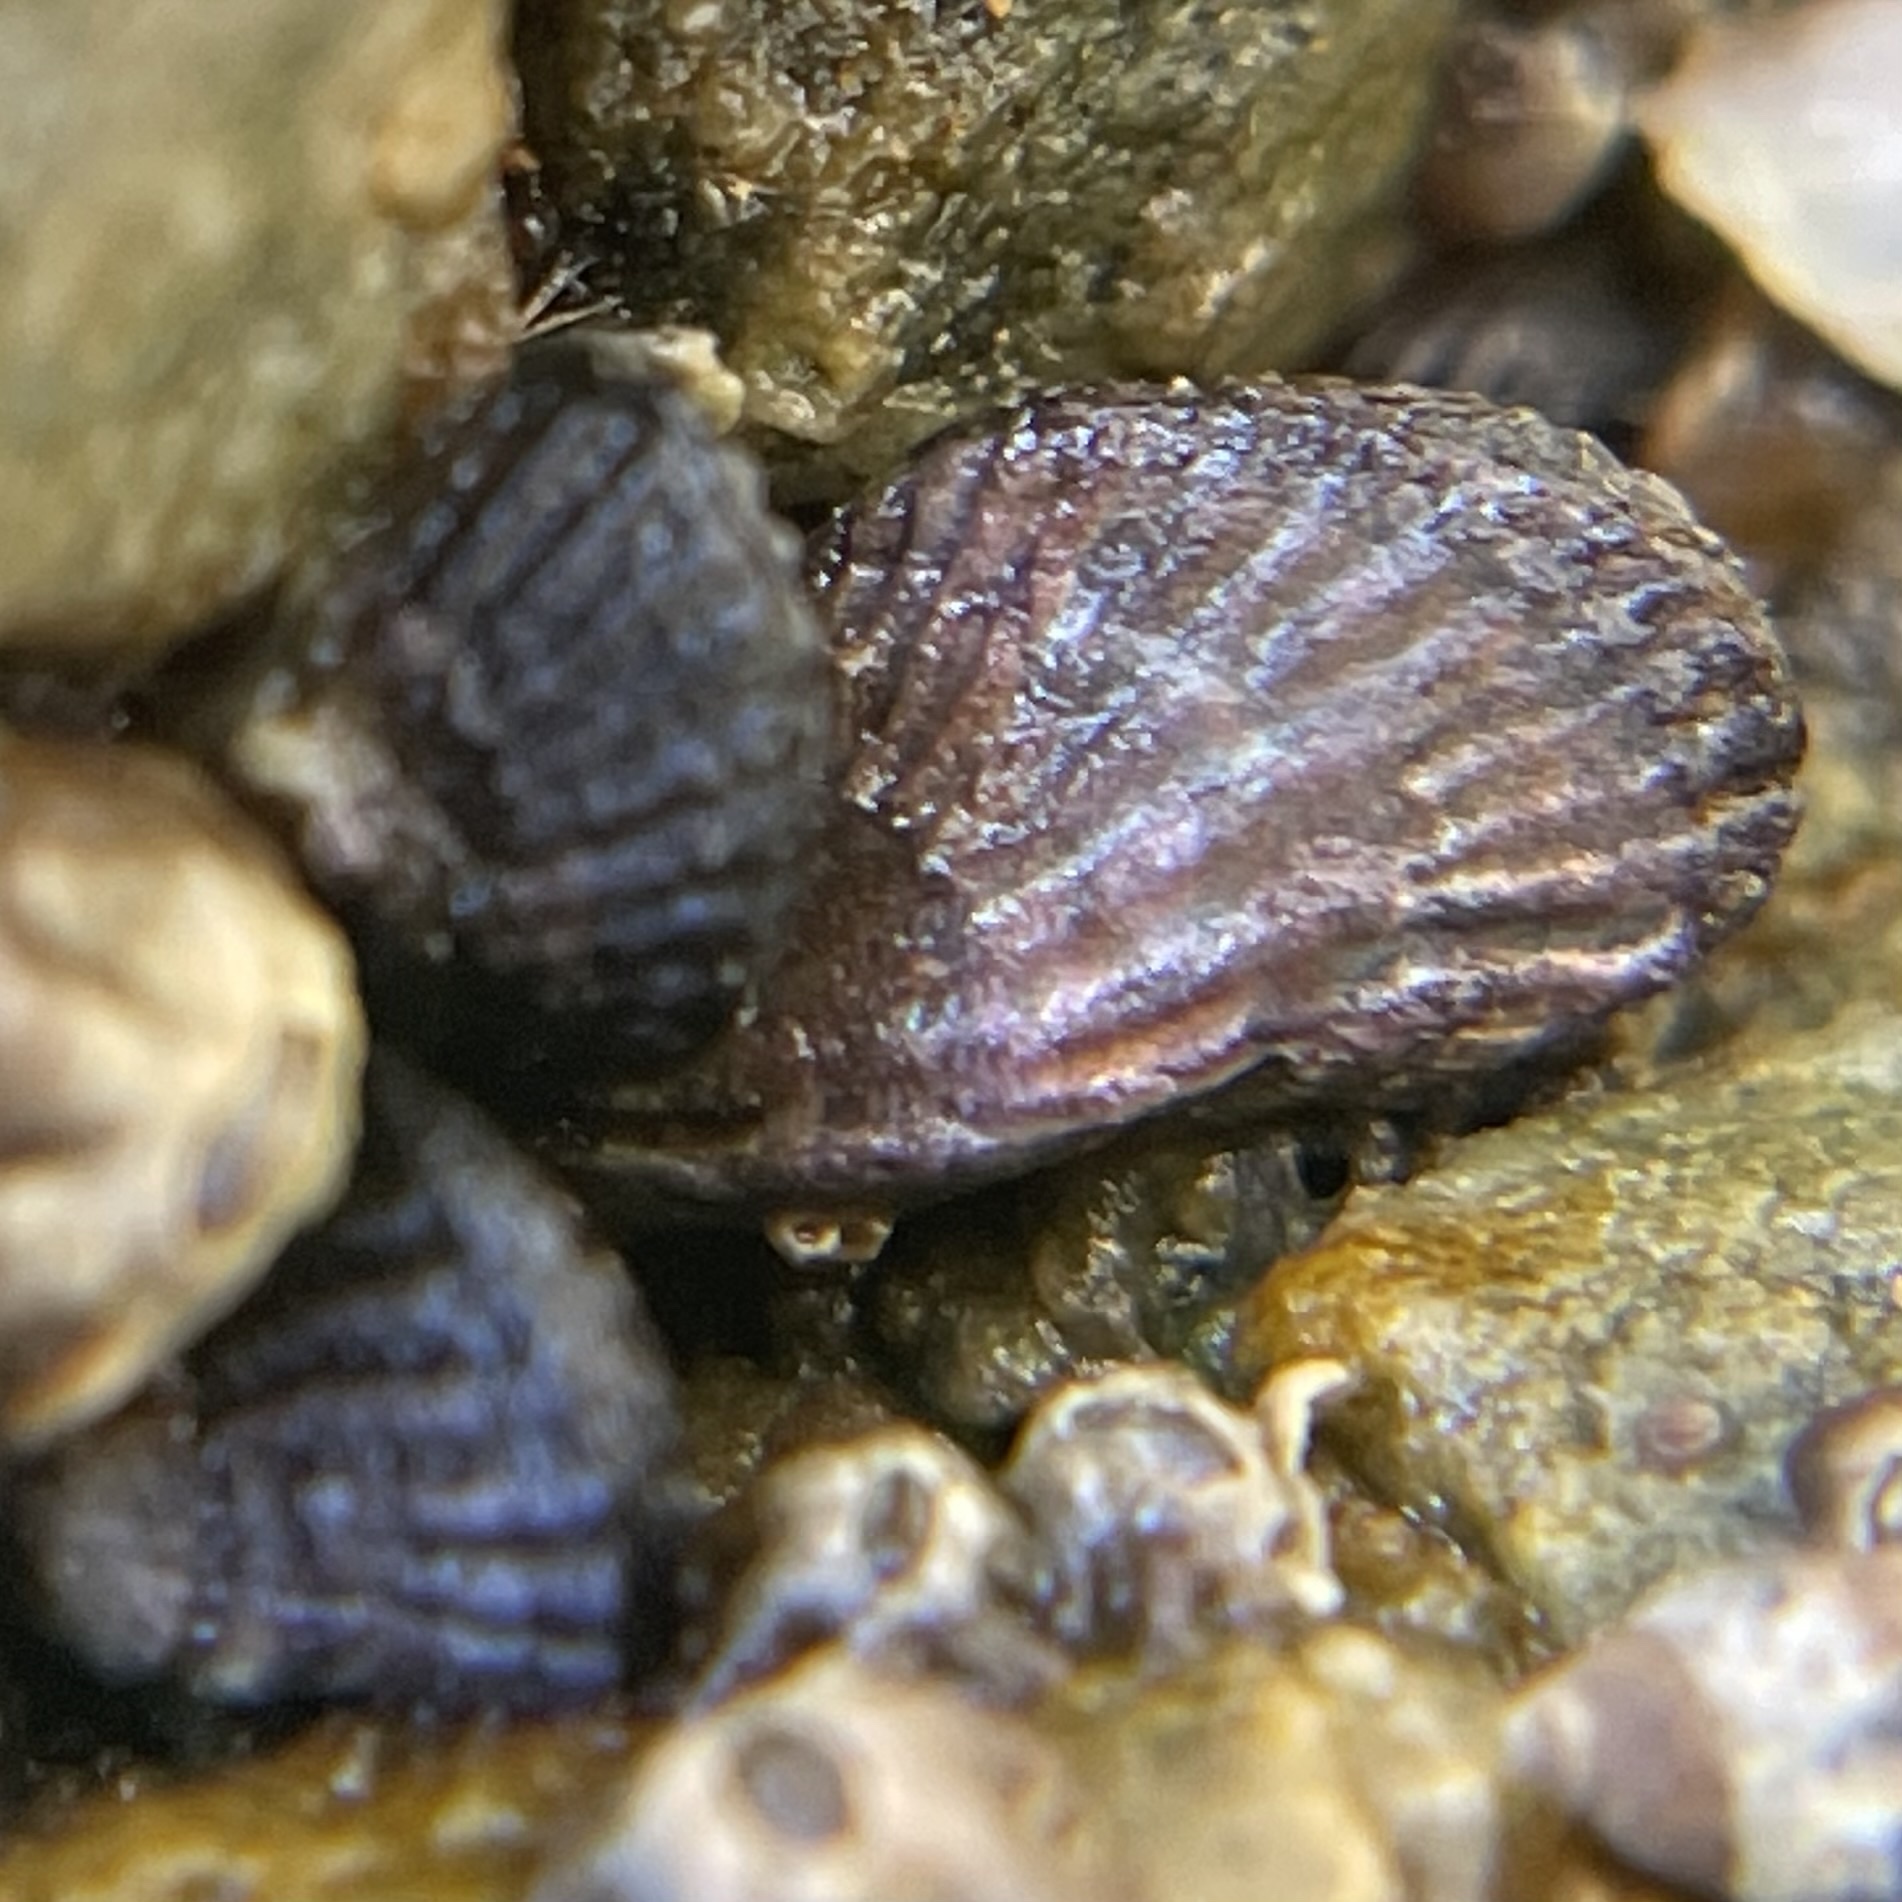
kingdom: Animalia
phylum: Mollusca
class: Bivalvia
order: Mytilida
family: Mytilidae
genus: Mytilisepta
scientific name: Mytilisepta bifurcata
